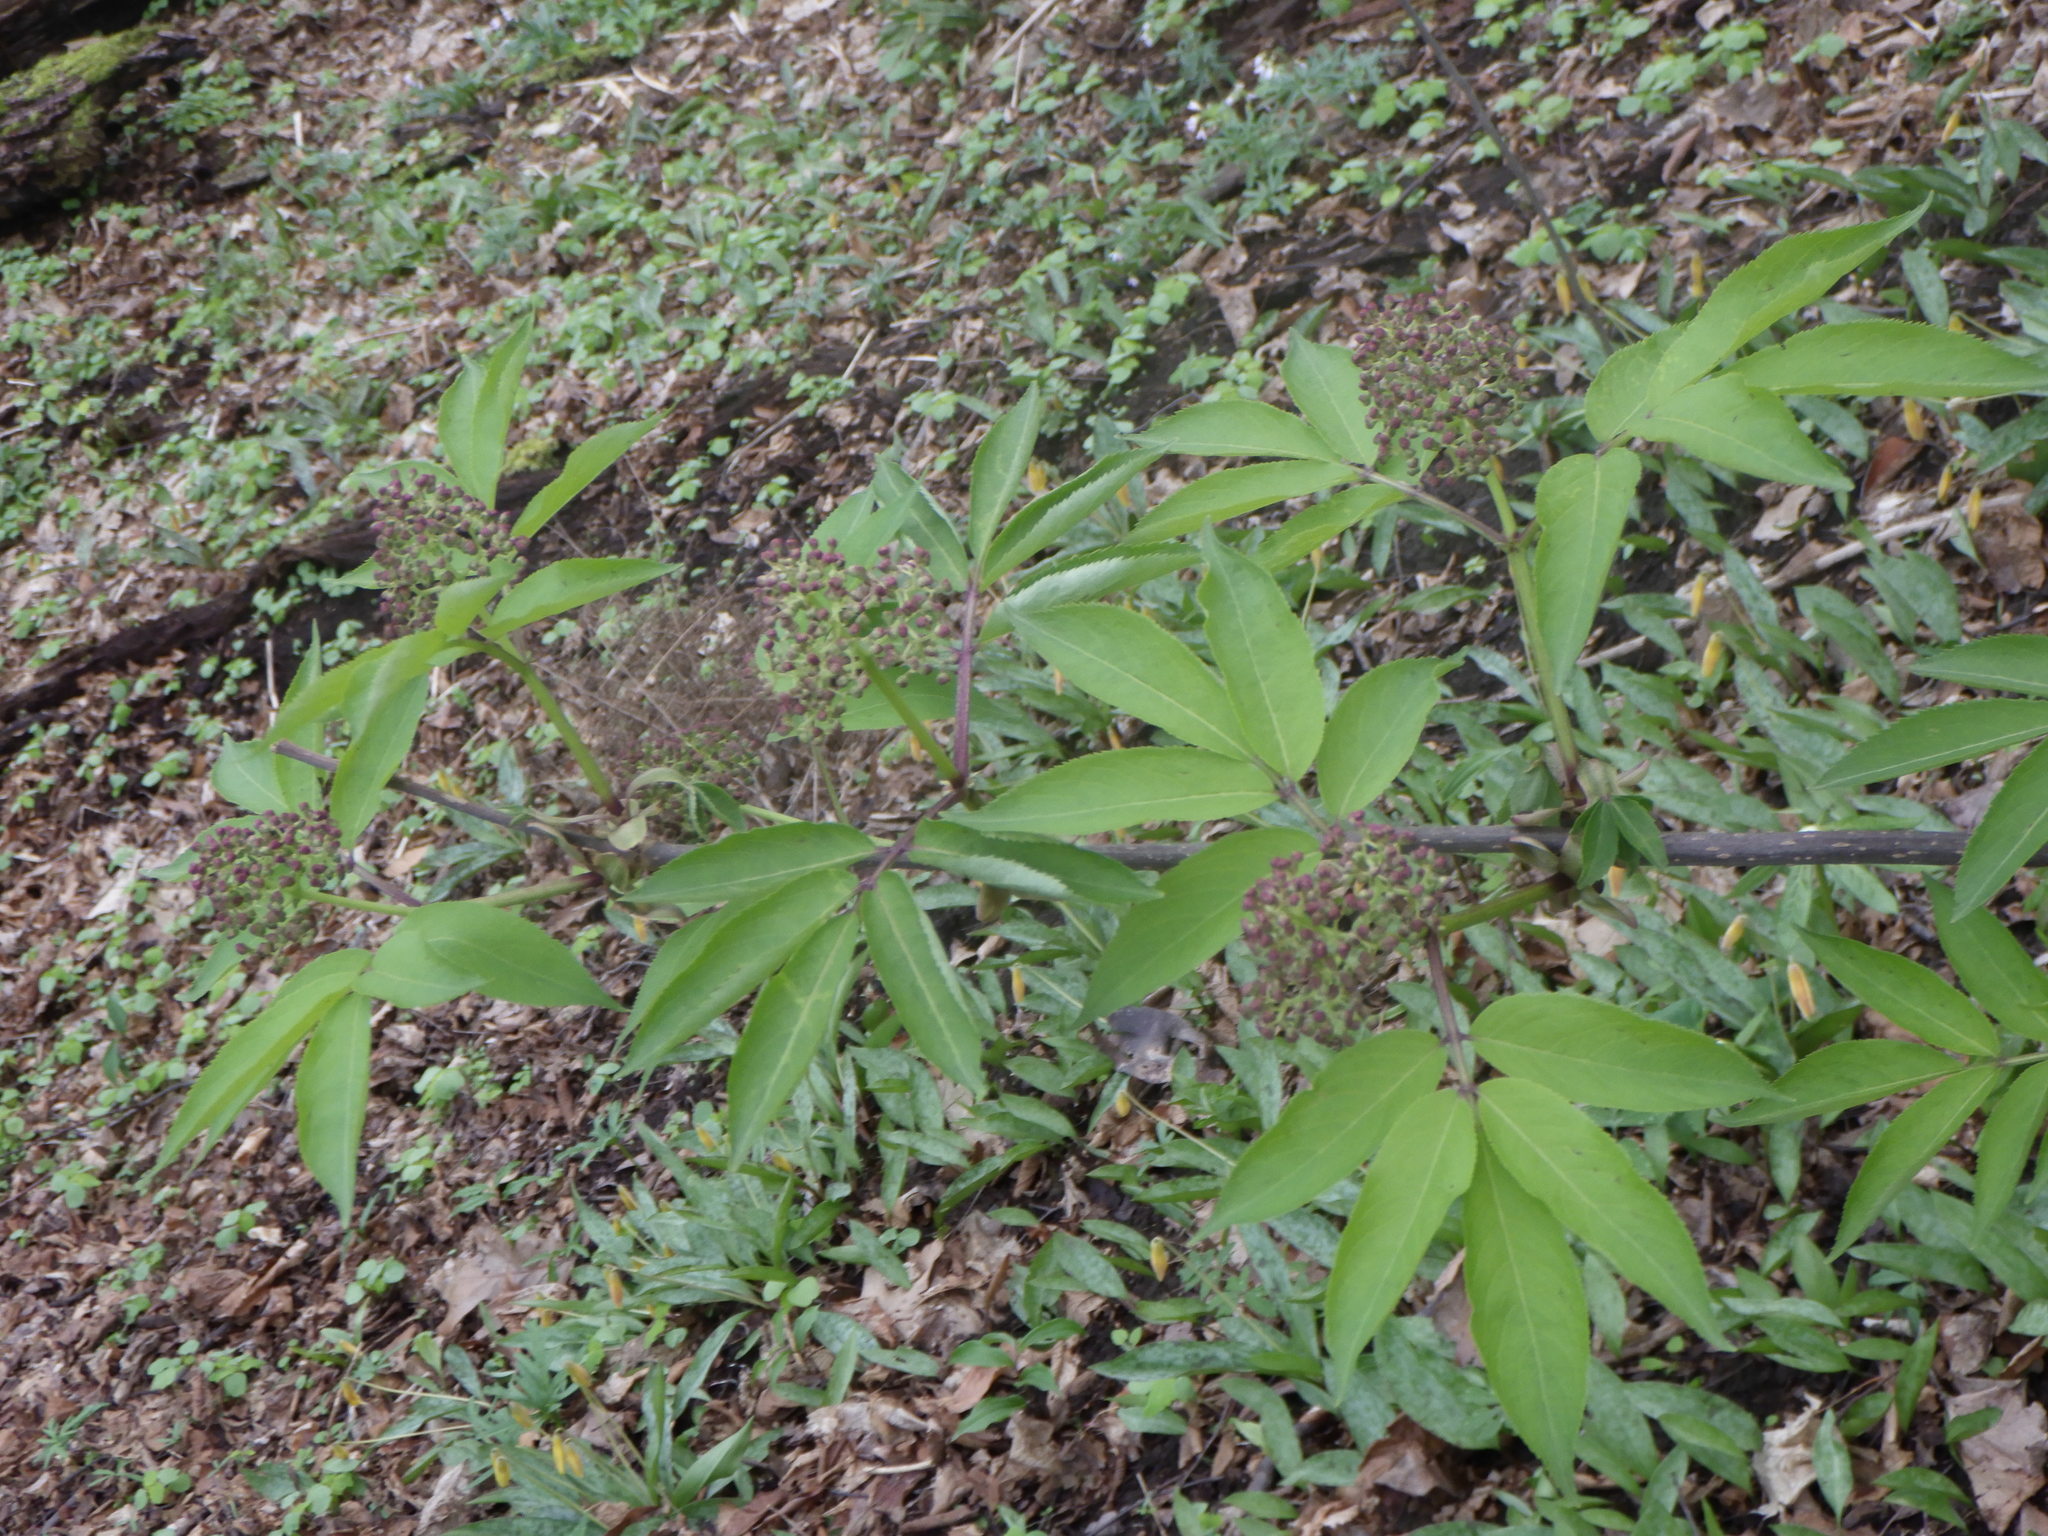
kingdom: Plantae
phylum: Tracheophyta
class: Magnoliopsida
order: Dipsacales
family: Viburnaceae
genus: Sambucus
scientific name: Sambucus canadensis
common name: American elder
